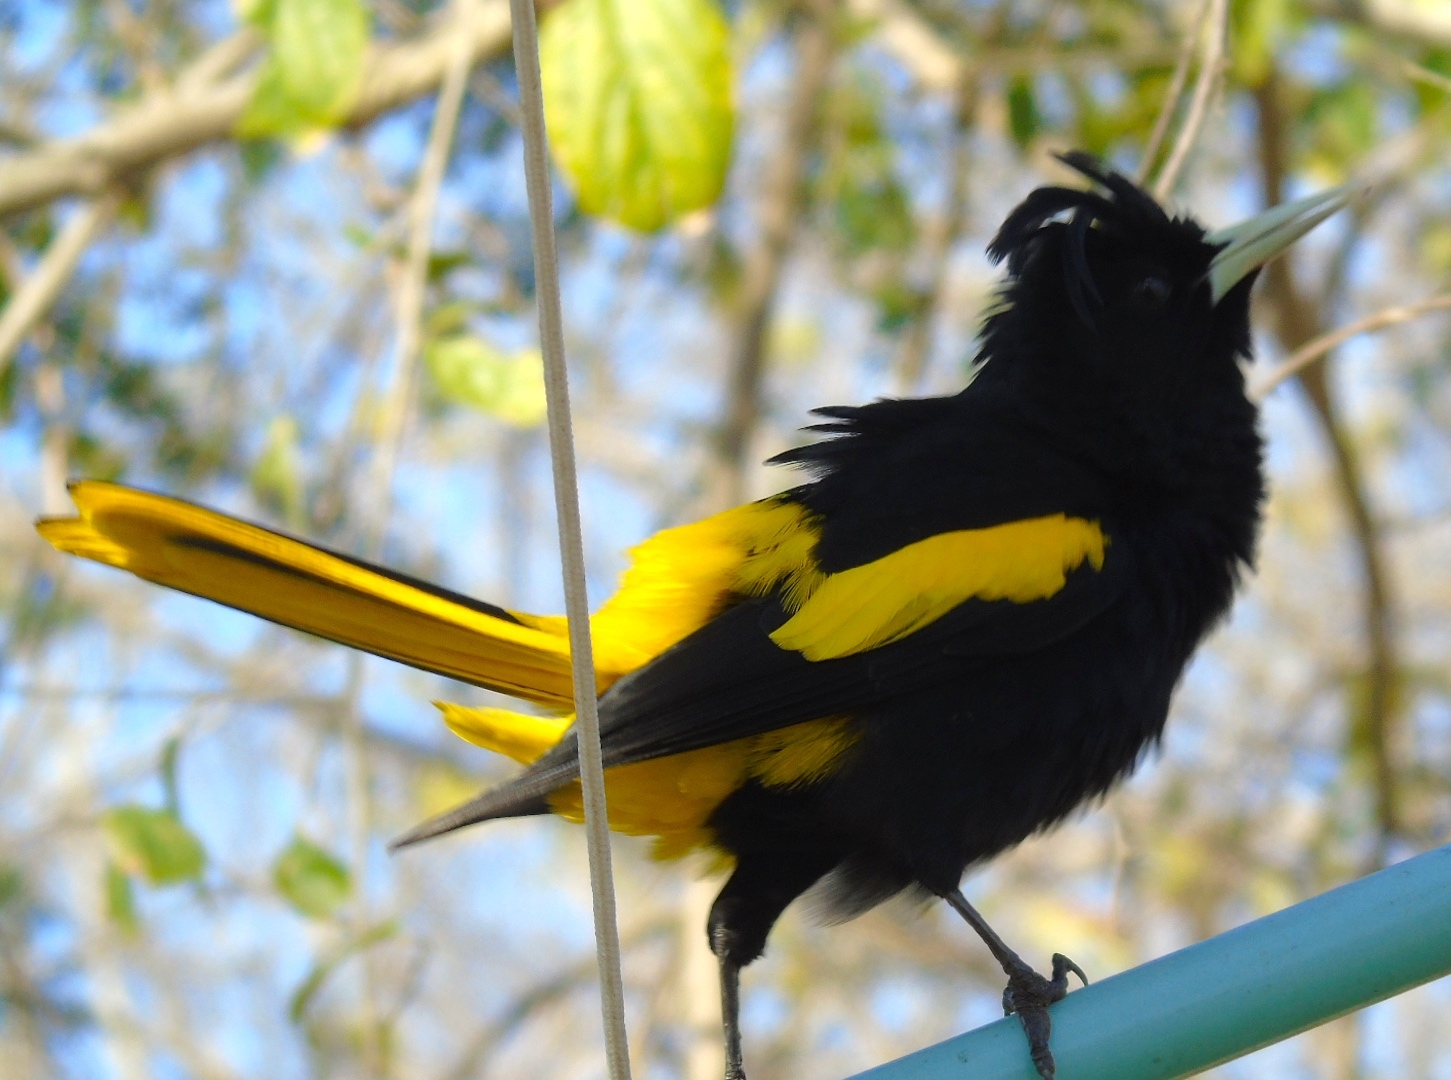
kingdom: Animalia
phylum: Chordata
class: Aves
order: Passeriformes
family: Icteridae
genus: Cacicus
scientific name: Cacicus melanicterus
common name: Yellow-winged cacique
